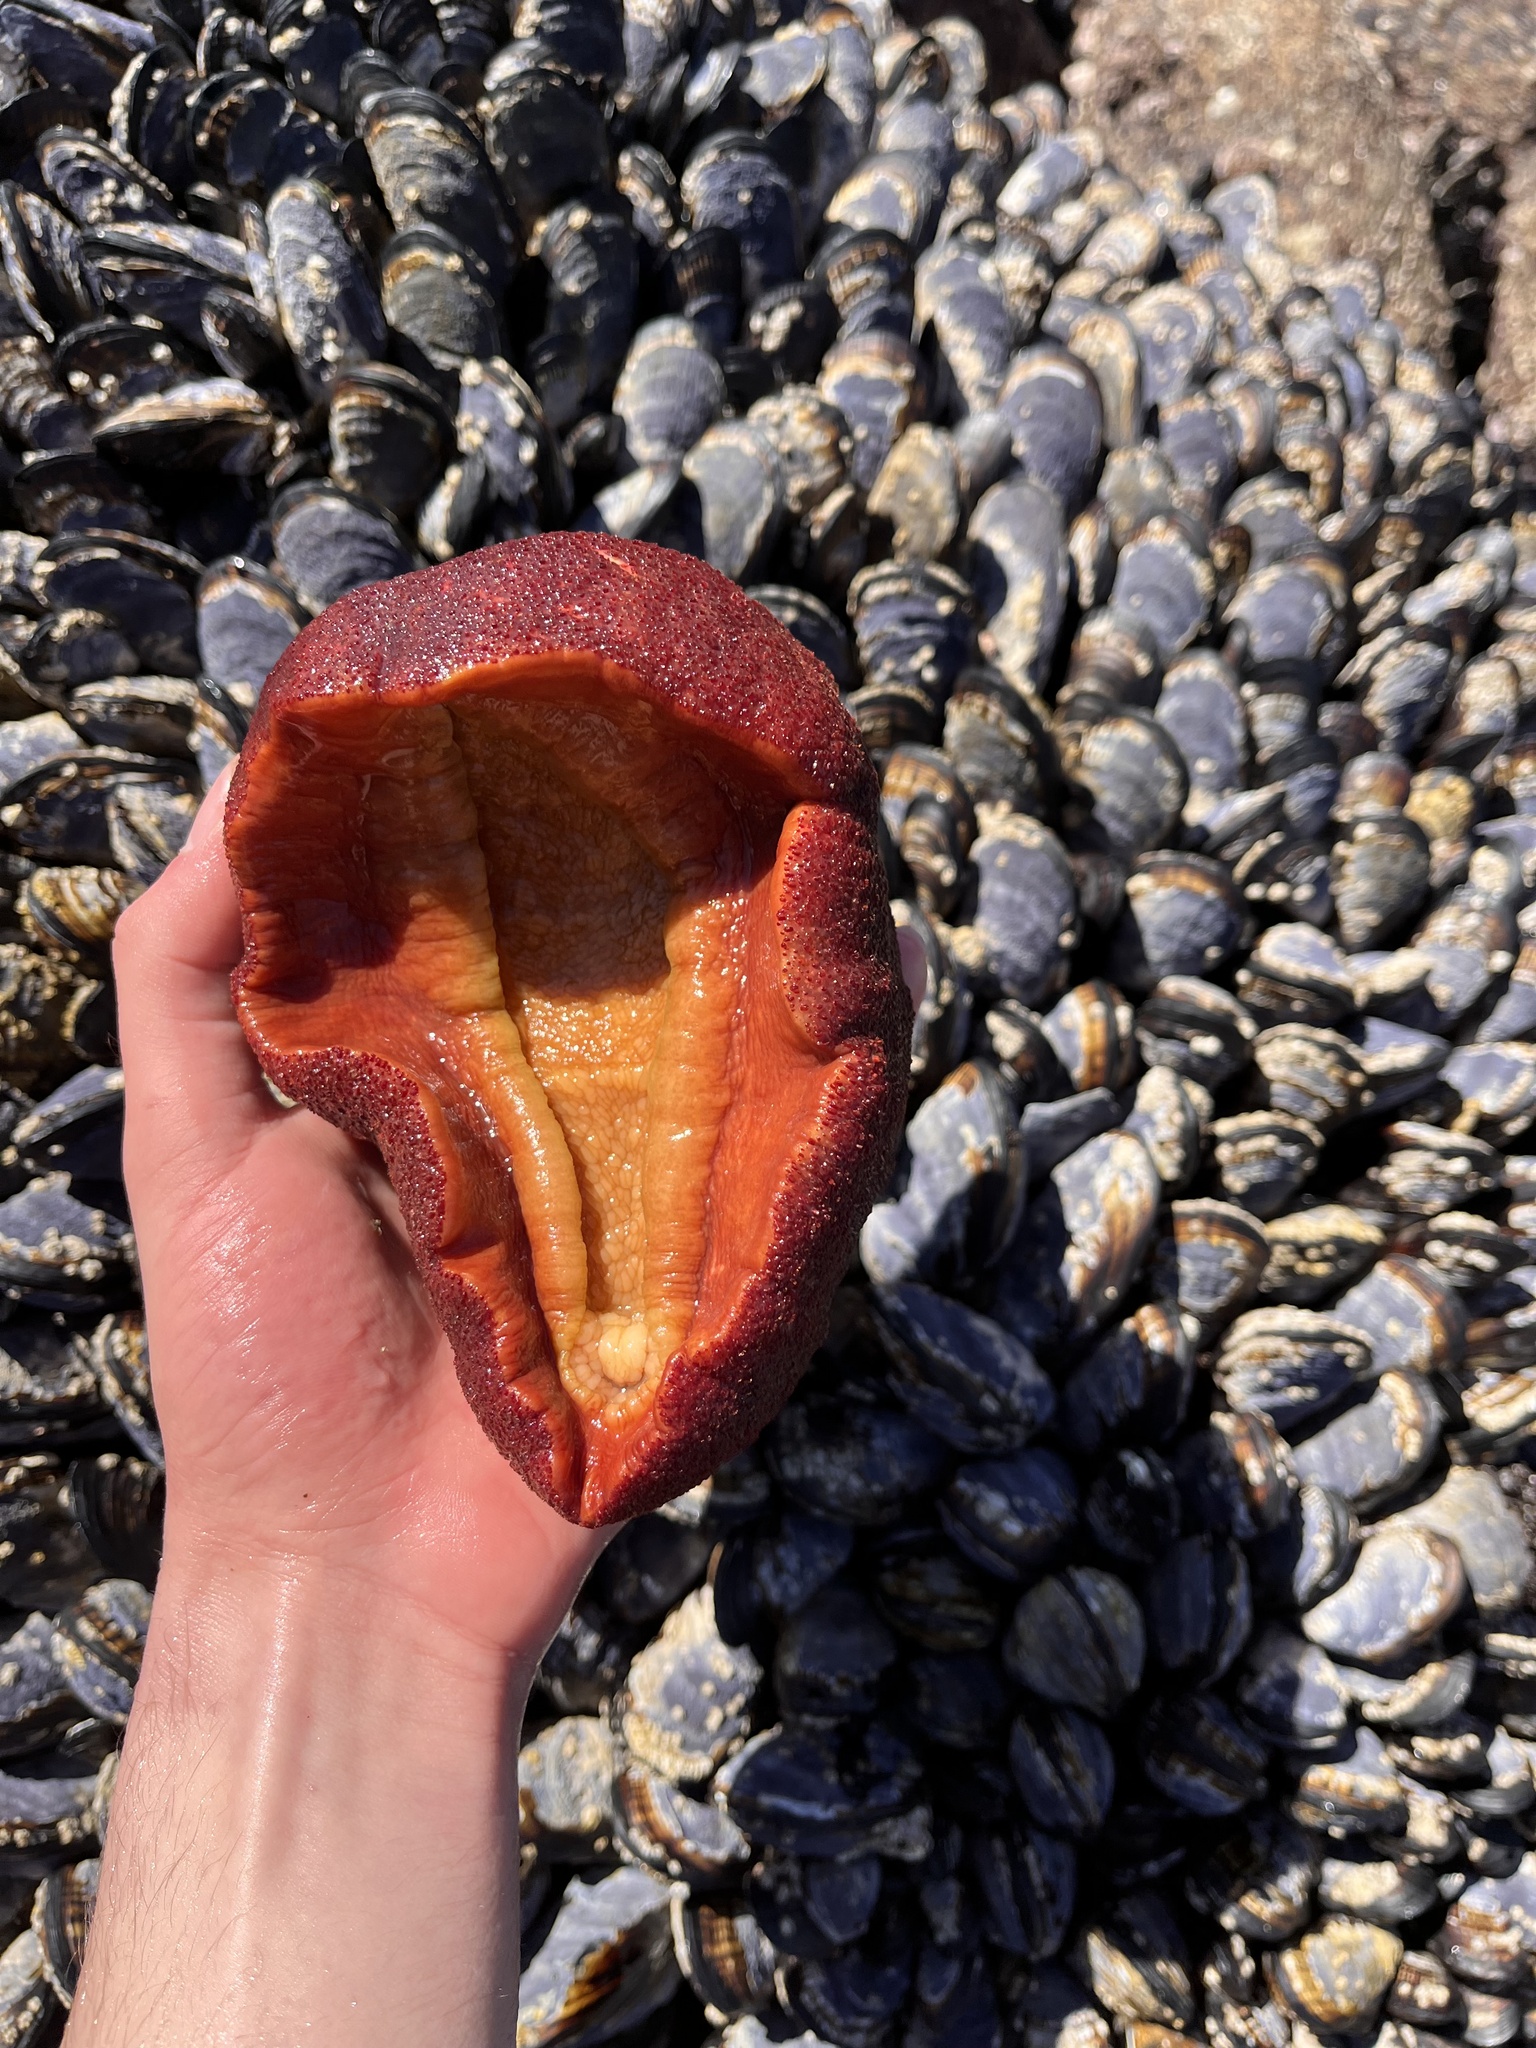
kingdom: Animalia
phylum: Mollusca
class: Polyplacophora
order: Chitonida
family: Acanthochitonidae
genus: Cryptochiton
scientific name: Cryptochiton stelleri
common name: Giant pacific chiton
